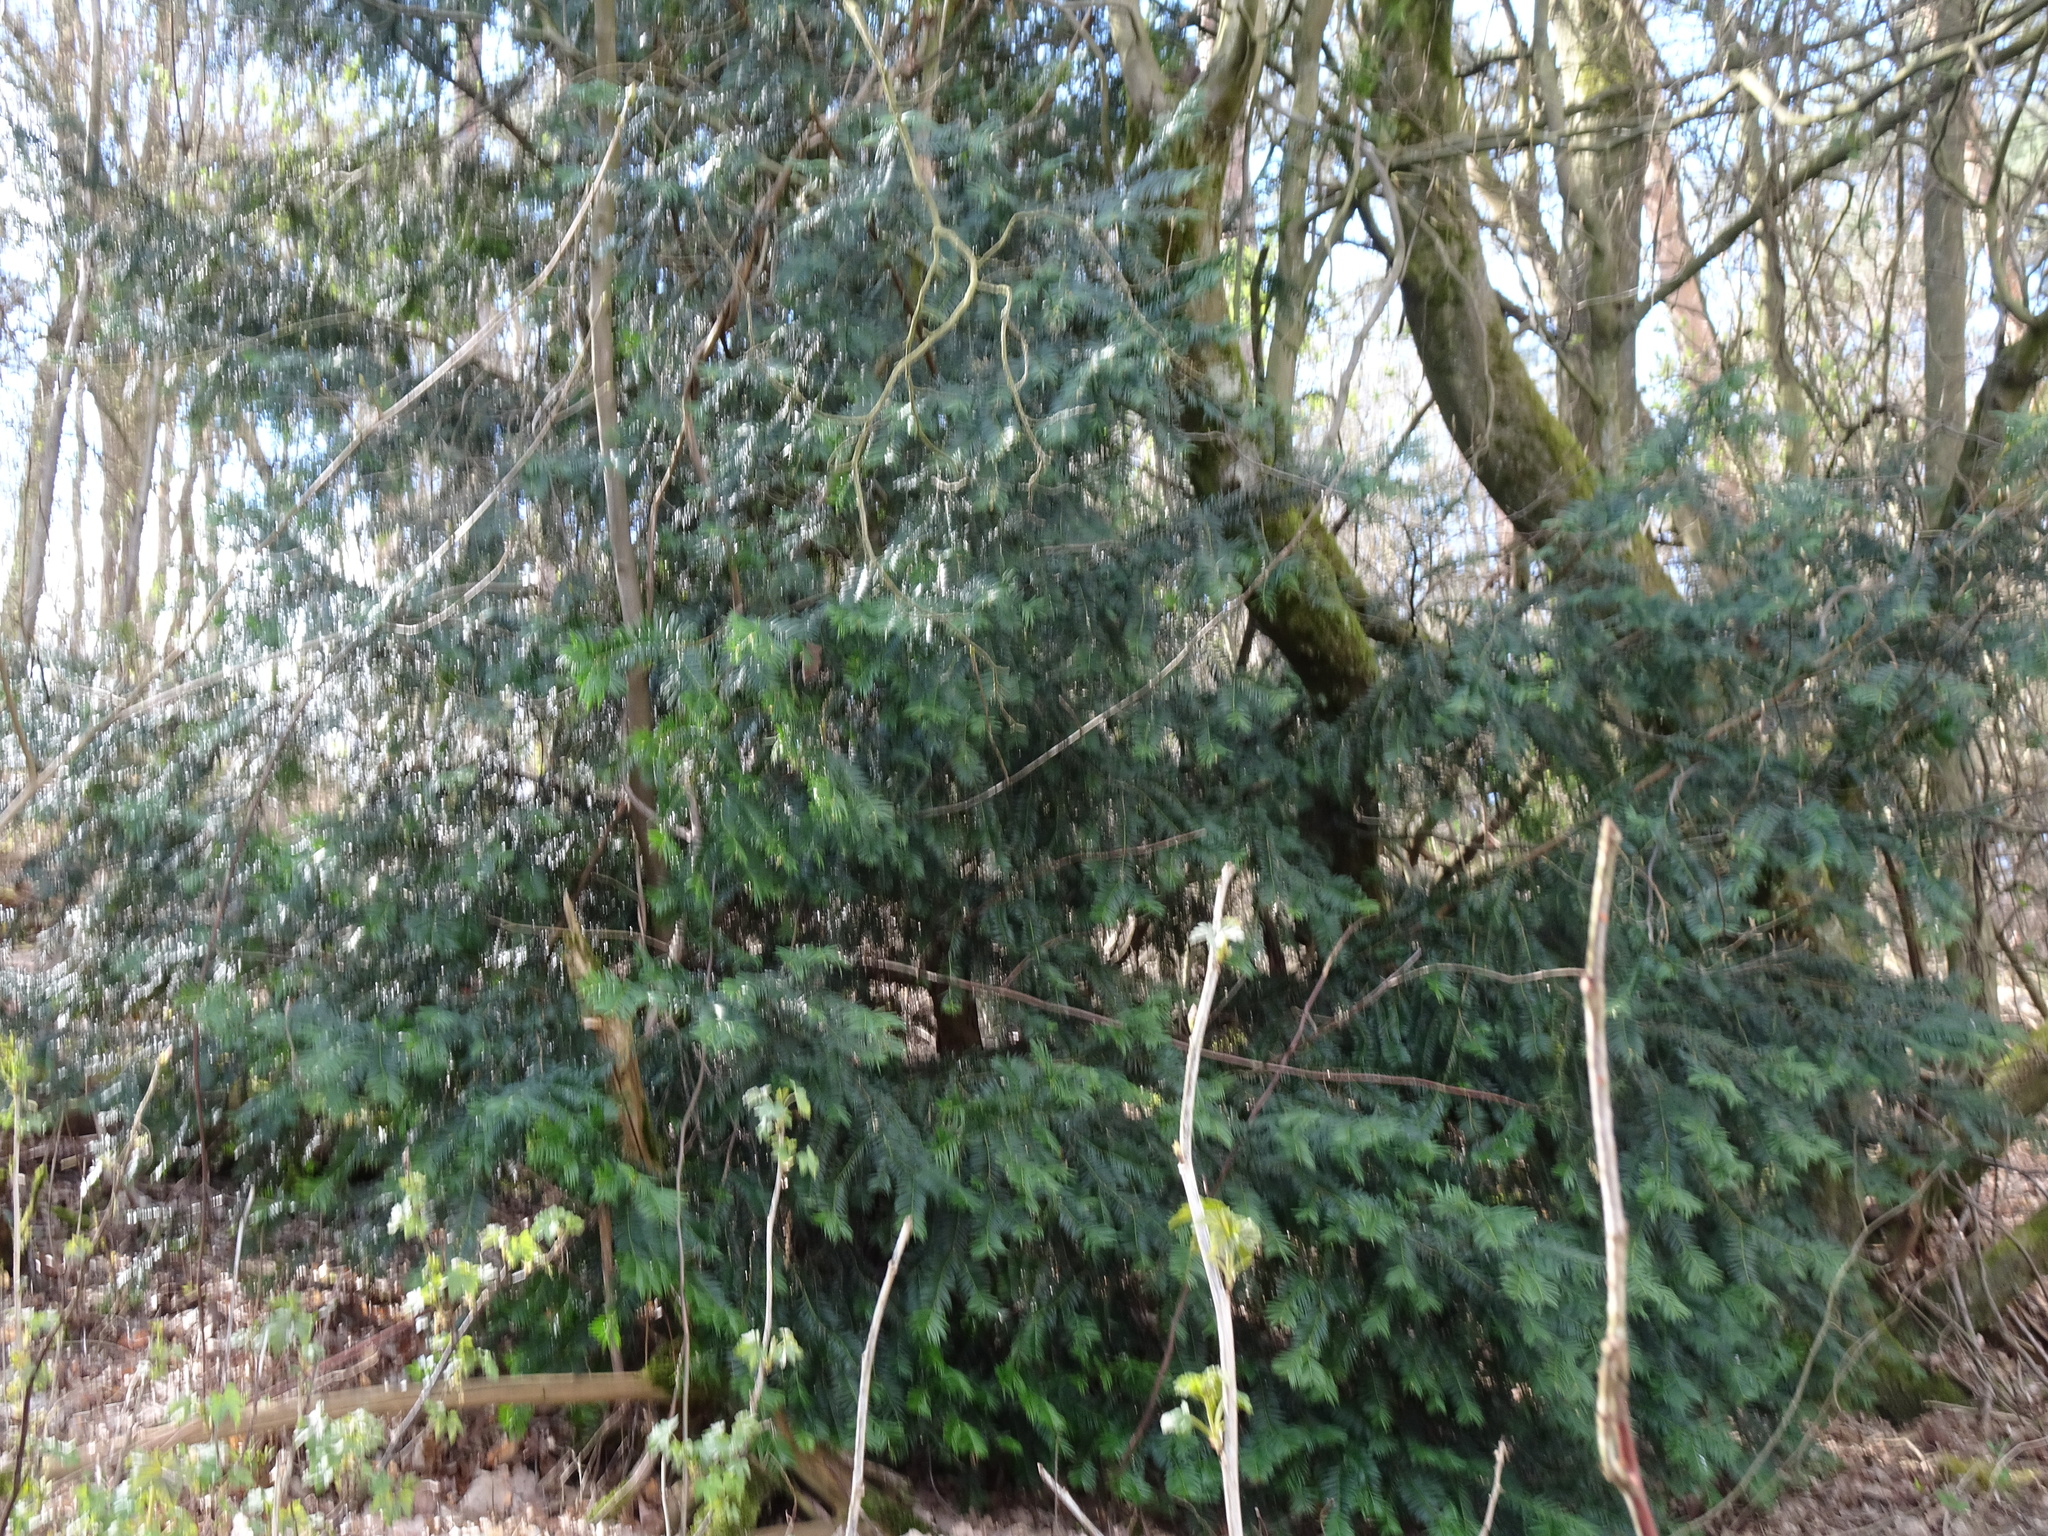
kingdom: Plantae
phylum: Tracheophyta
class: Pinopsida
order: Pinales
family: Taxaceae
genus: Taxus
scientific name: Taxus baccata
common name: Yew
